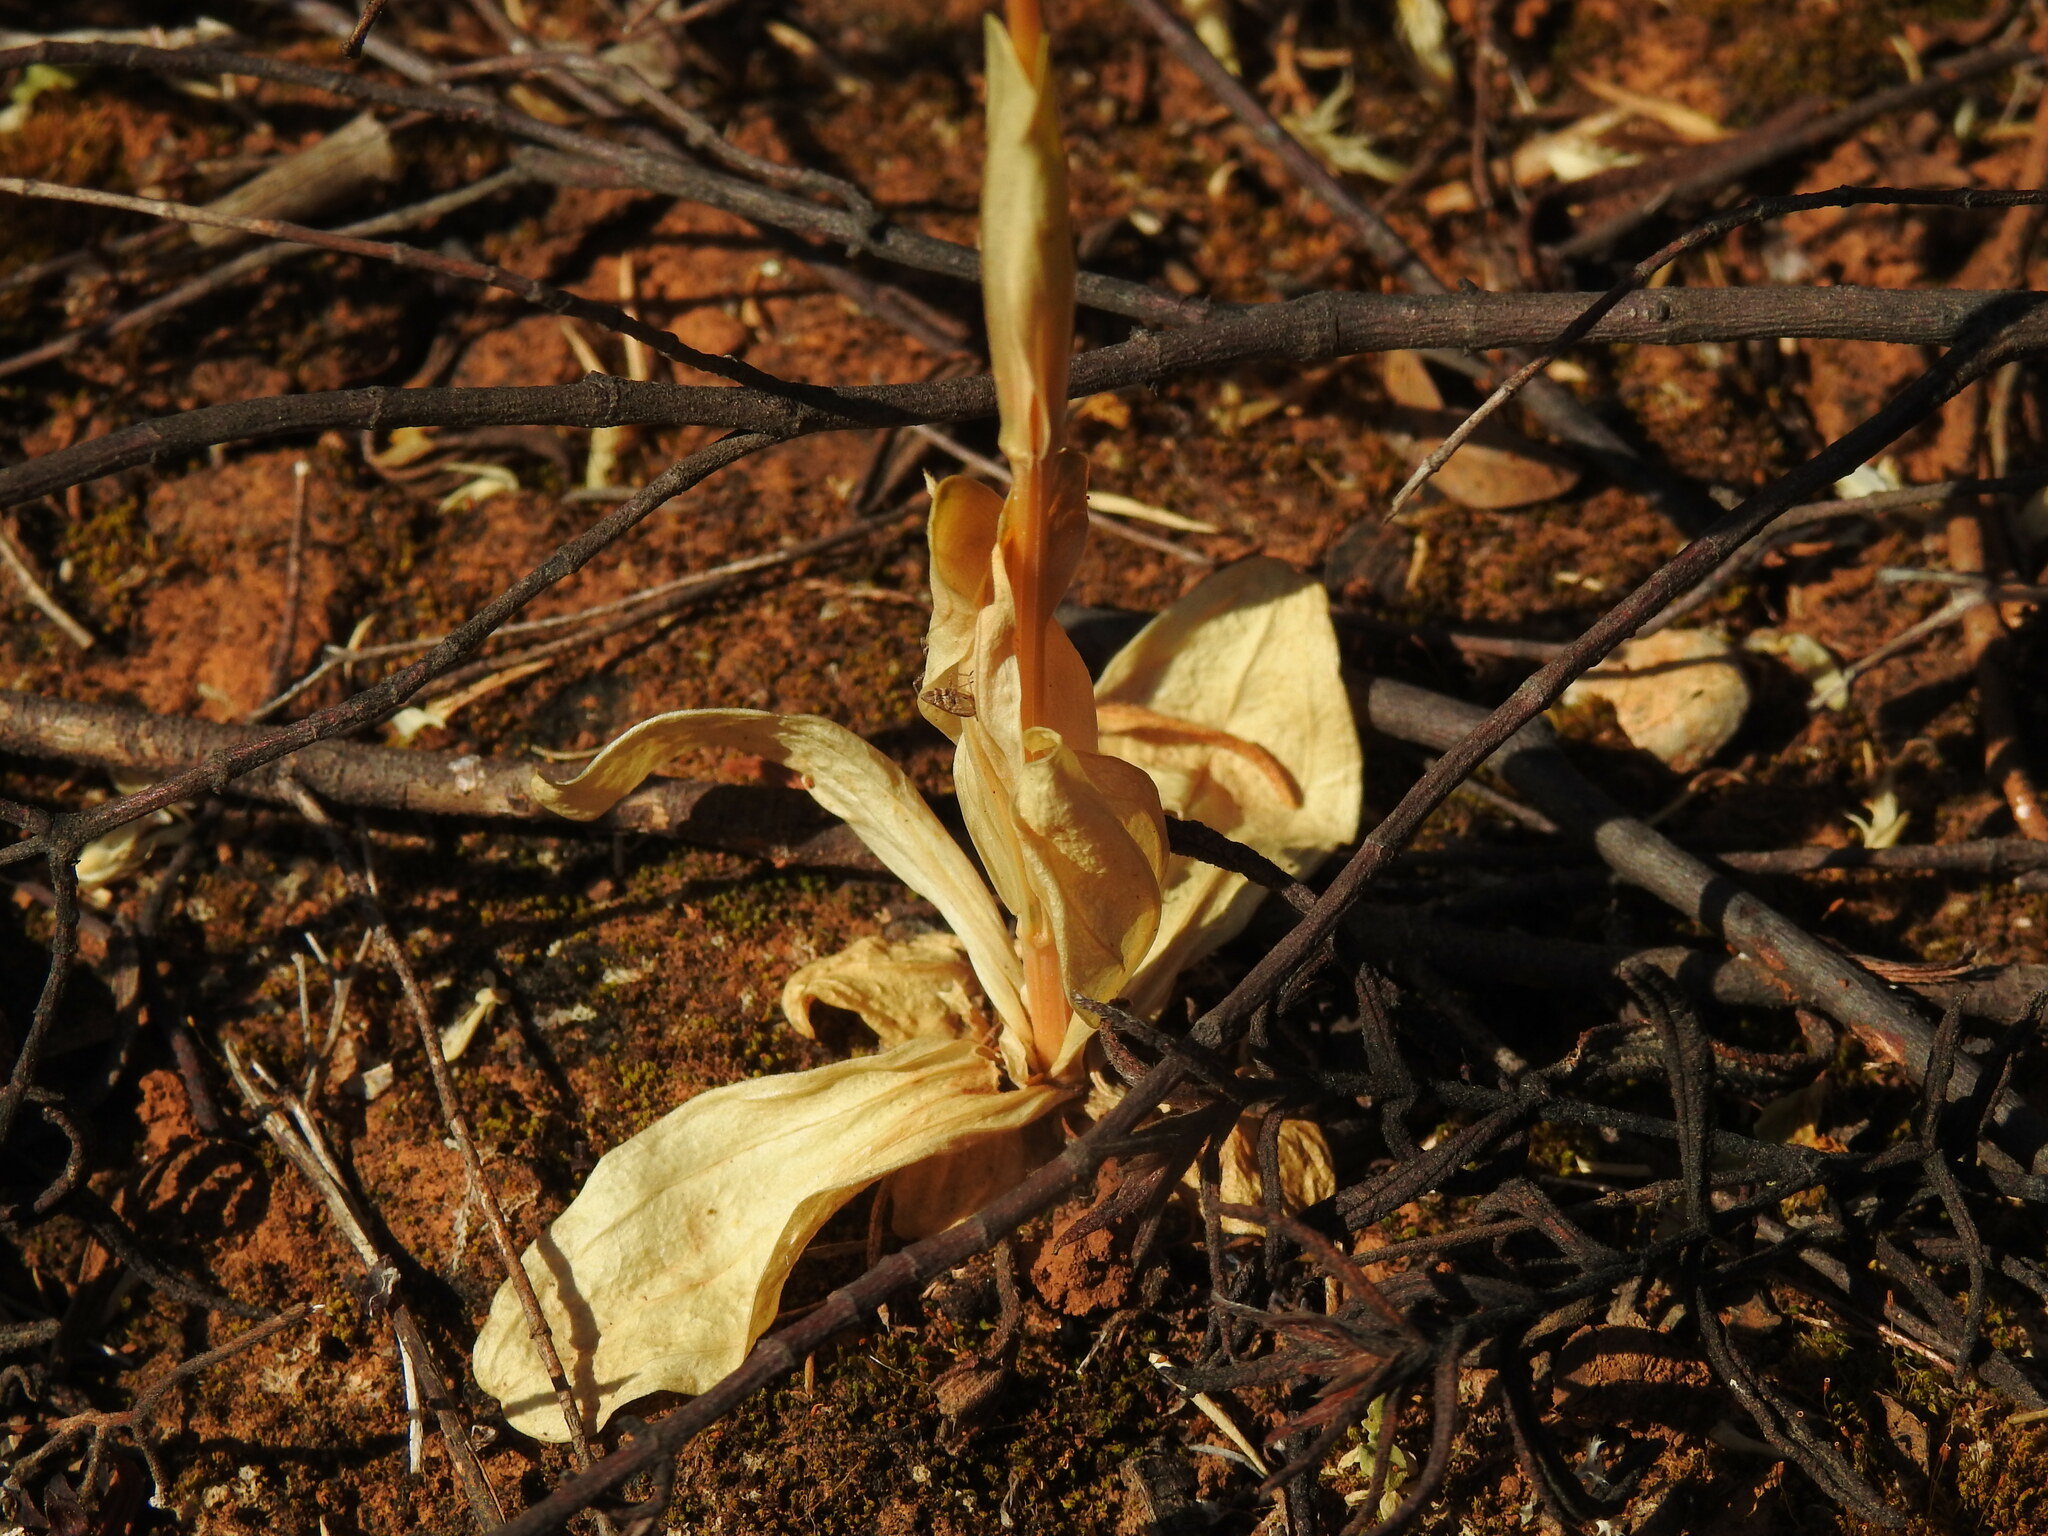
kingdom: Plantae
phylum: Tracheophyta
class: Magnoliopsida
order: Gentianales
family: Gentianaceae
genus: Centaurium
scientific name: Centaurium grandiflorum
